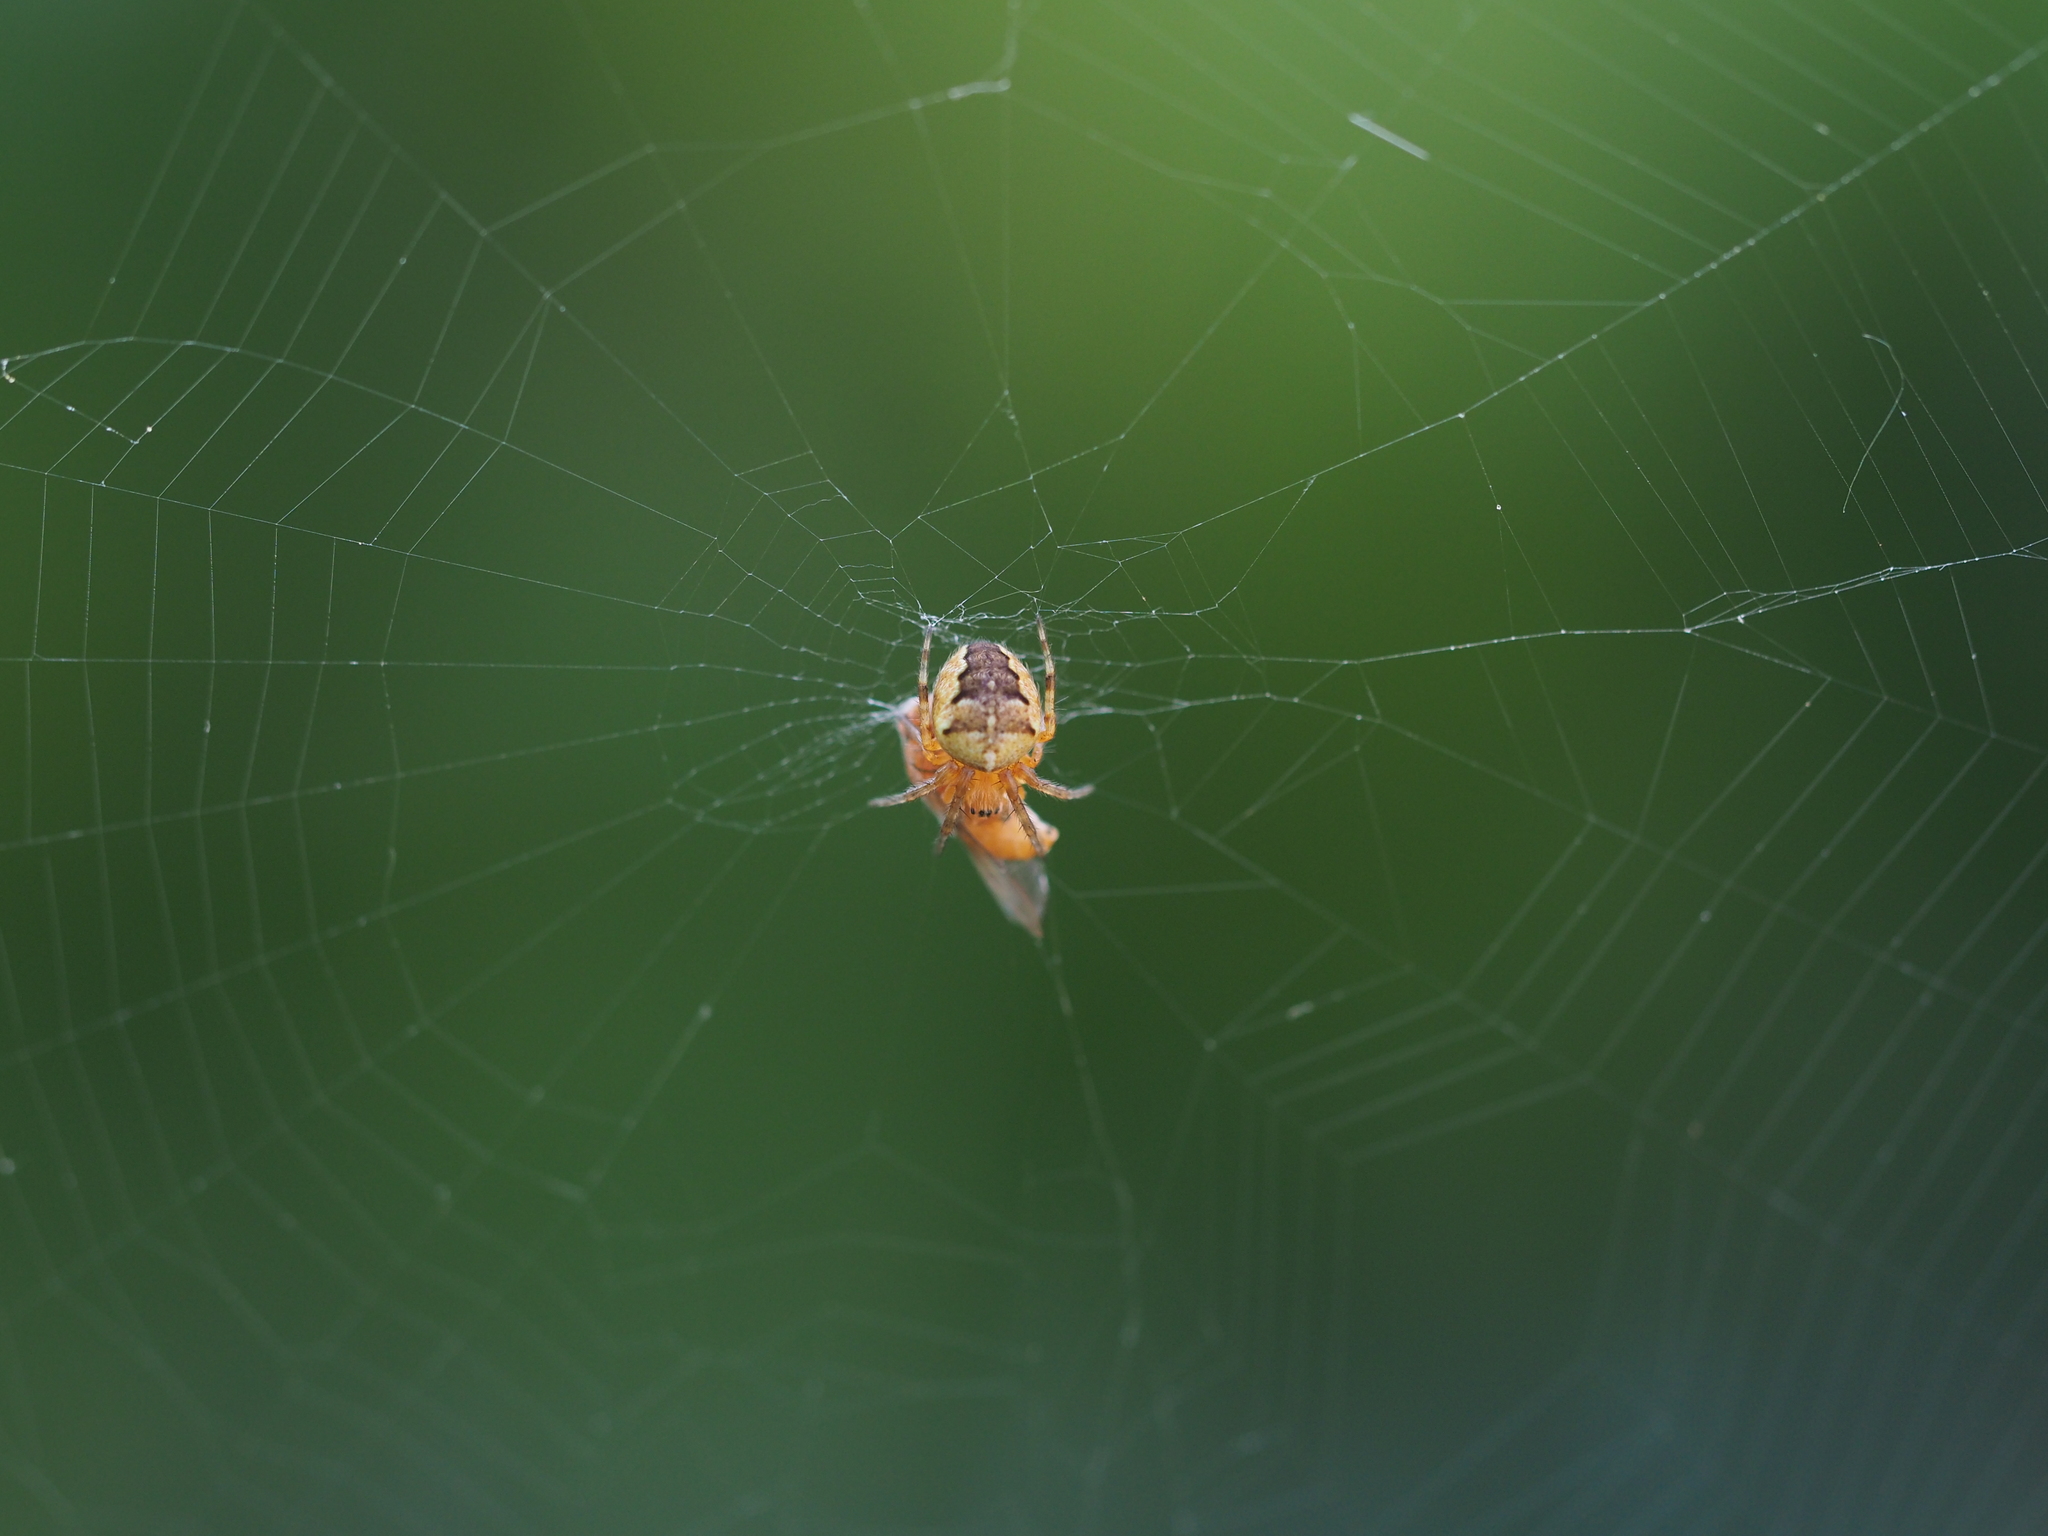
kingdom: Animalia
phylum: Arthropoda
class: Arachnida
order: Araneae
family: Araneidae
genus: Araneus
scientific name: Araneus diadematus
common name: Cross orbweaver
